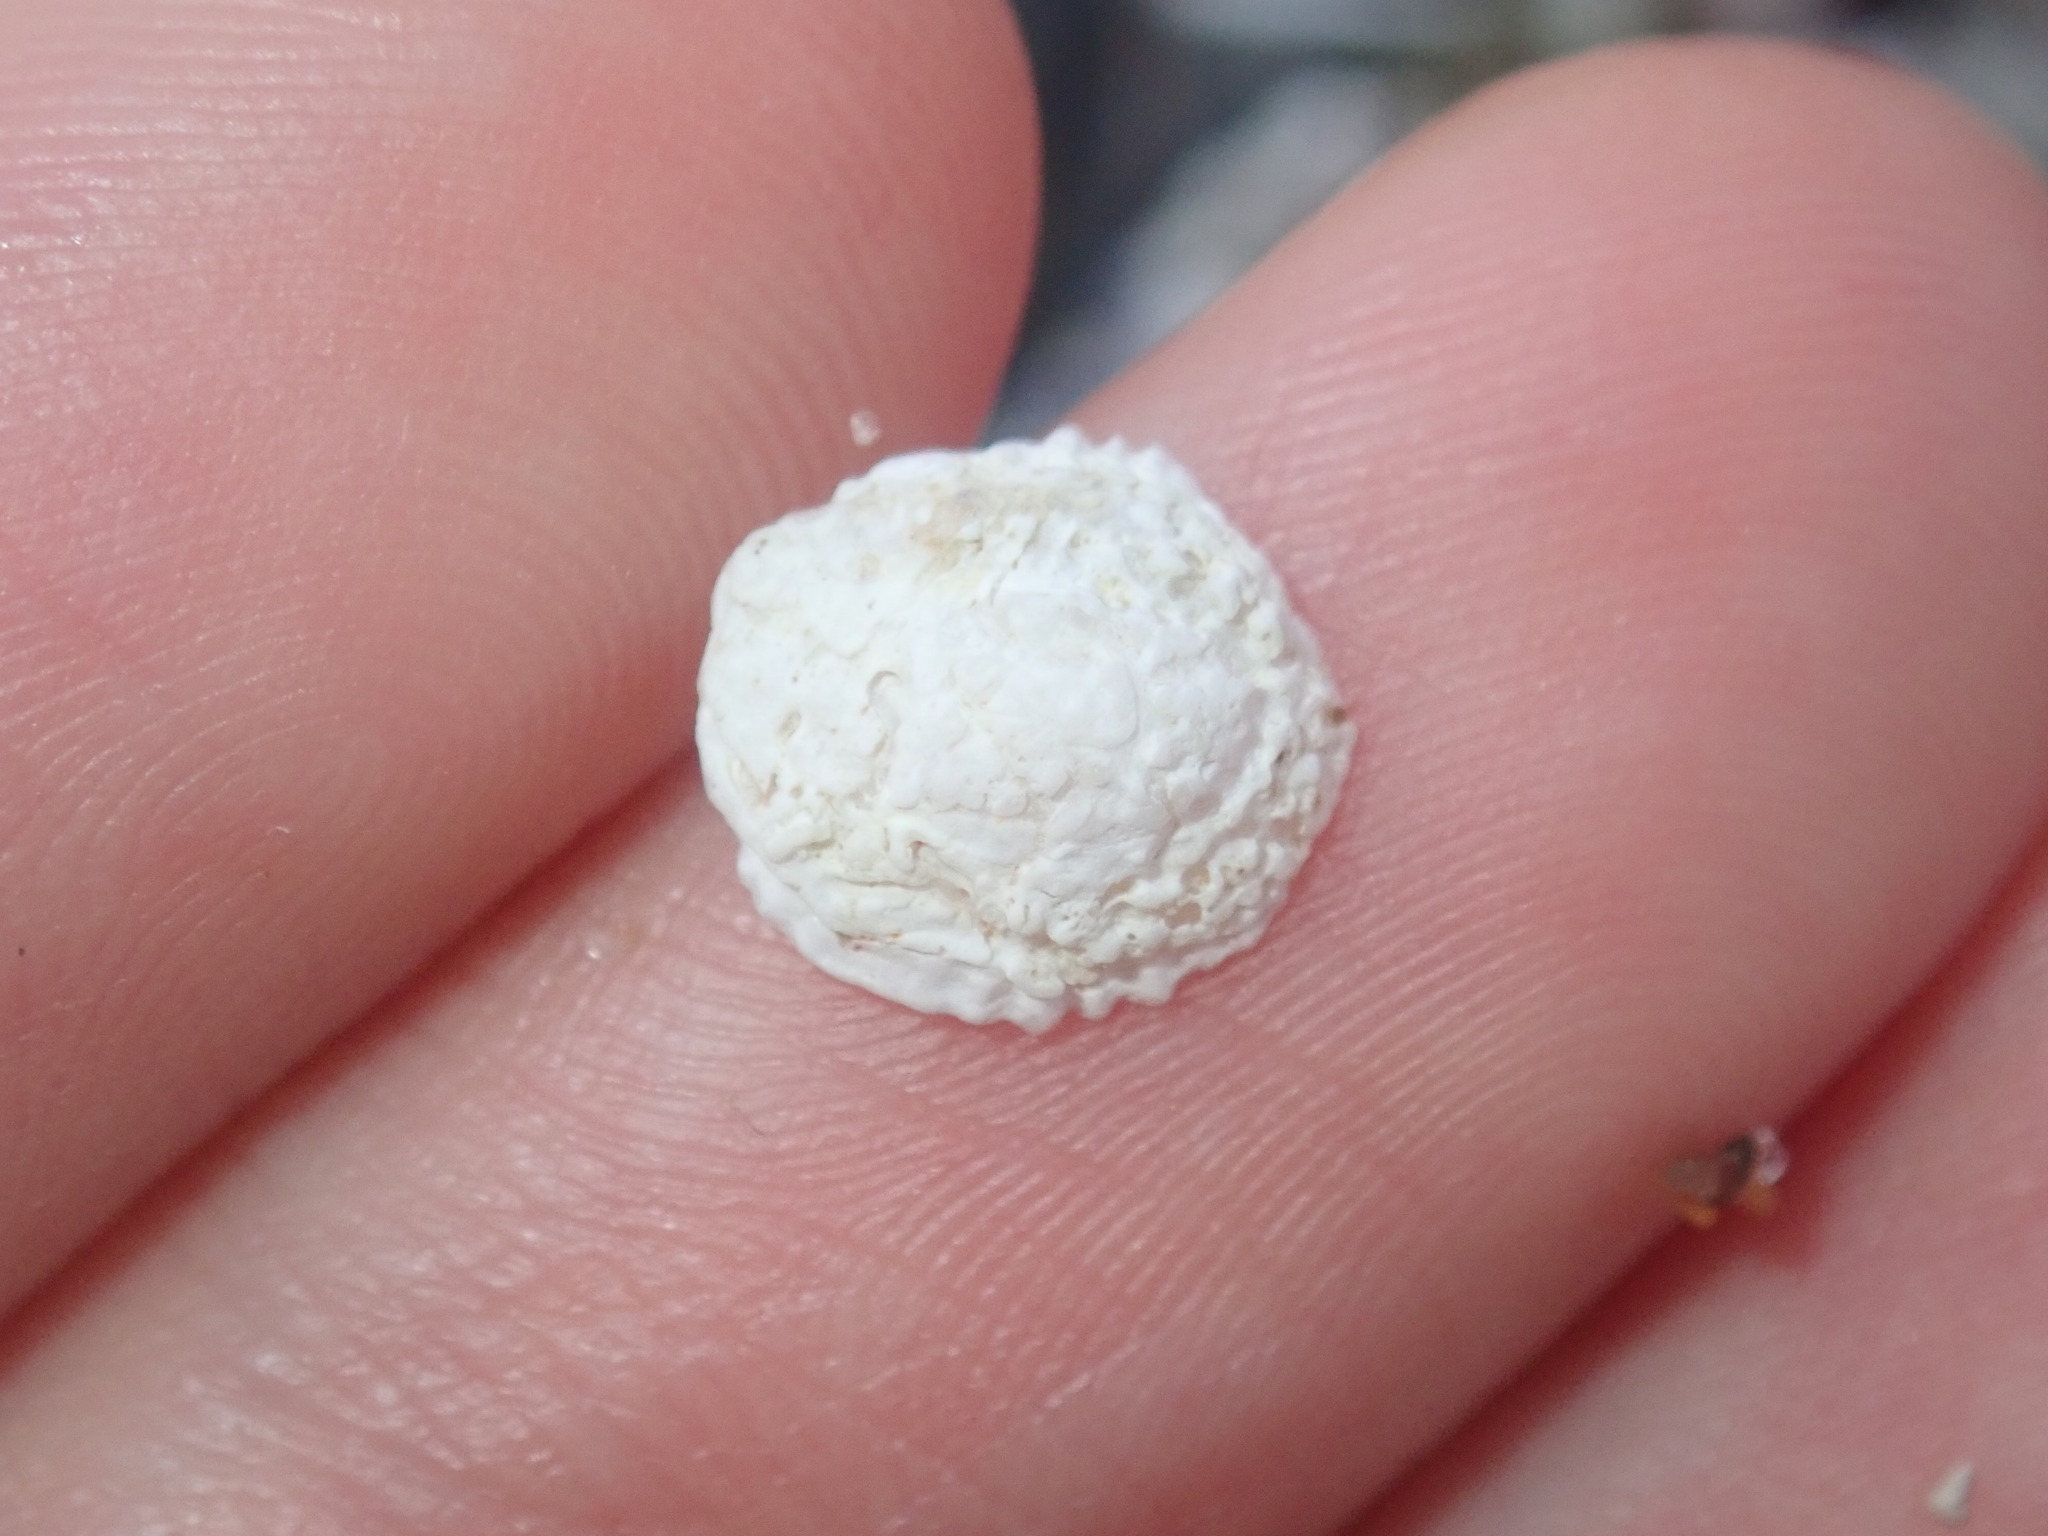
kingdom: Animalia
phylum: Mollusca
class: Gastropoda
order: Ellobiida
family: Trimusculidae
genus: Trimusculus
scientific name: Trimusculus conicus
